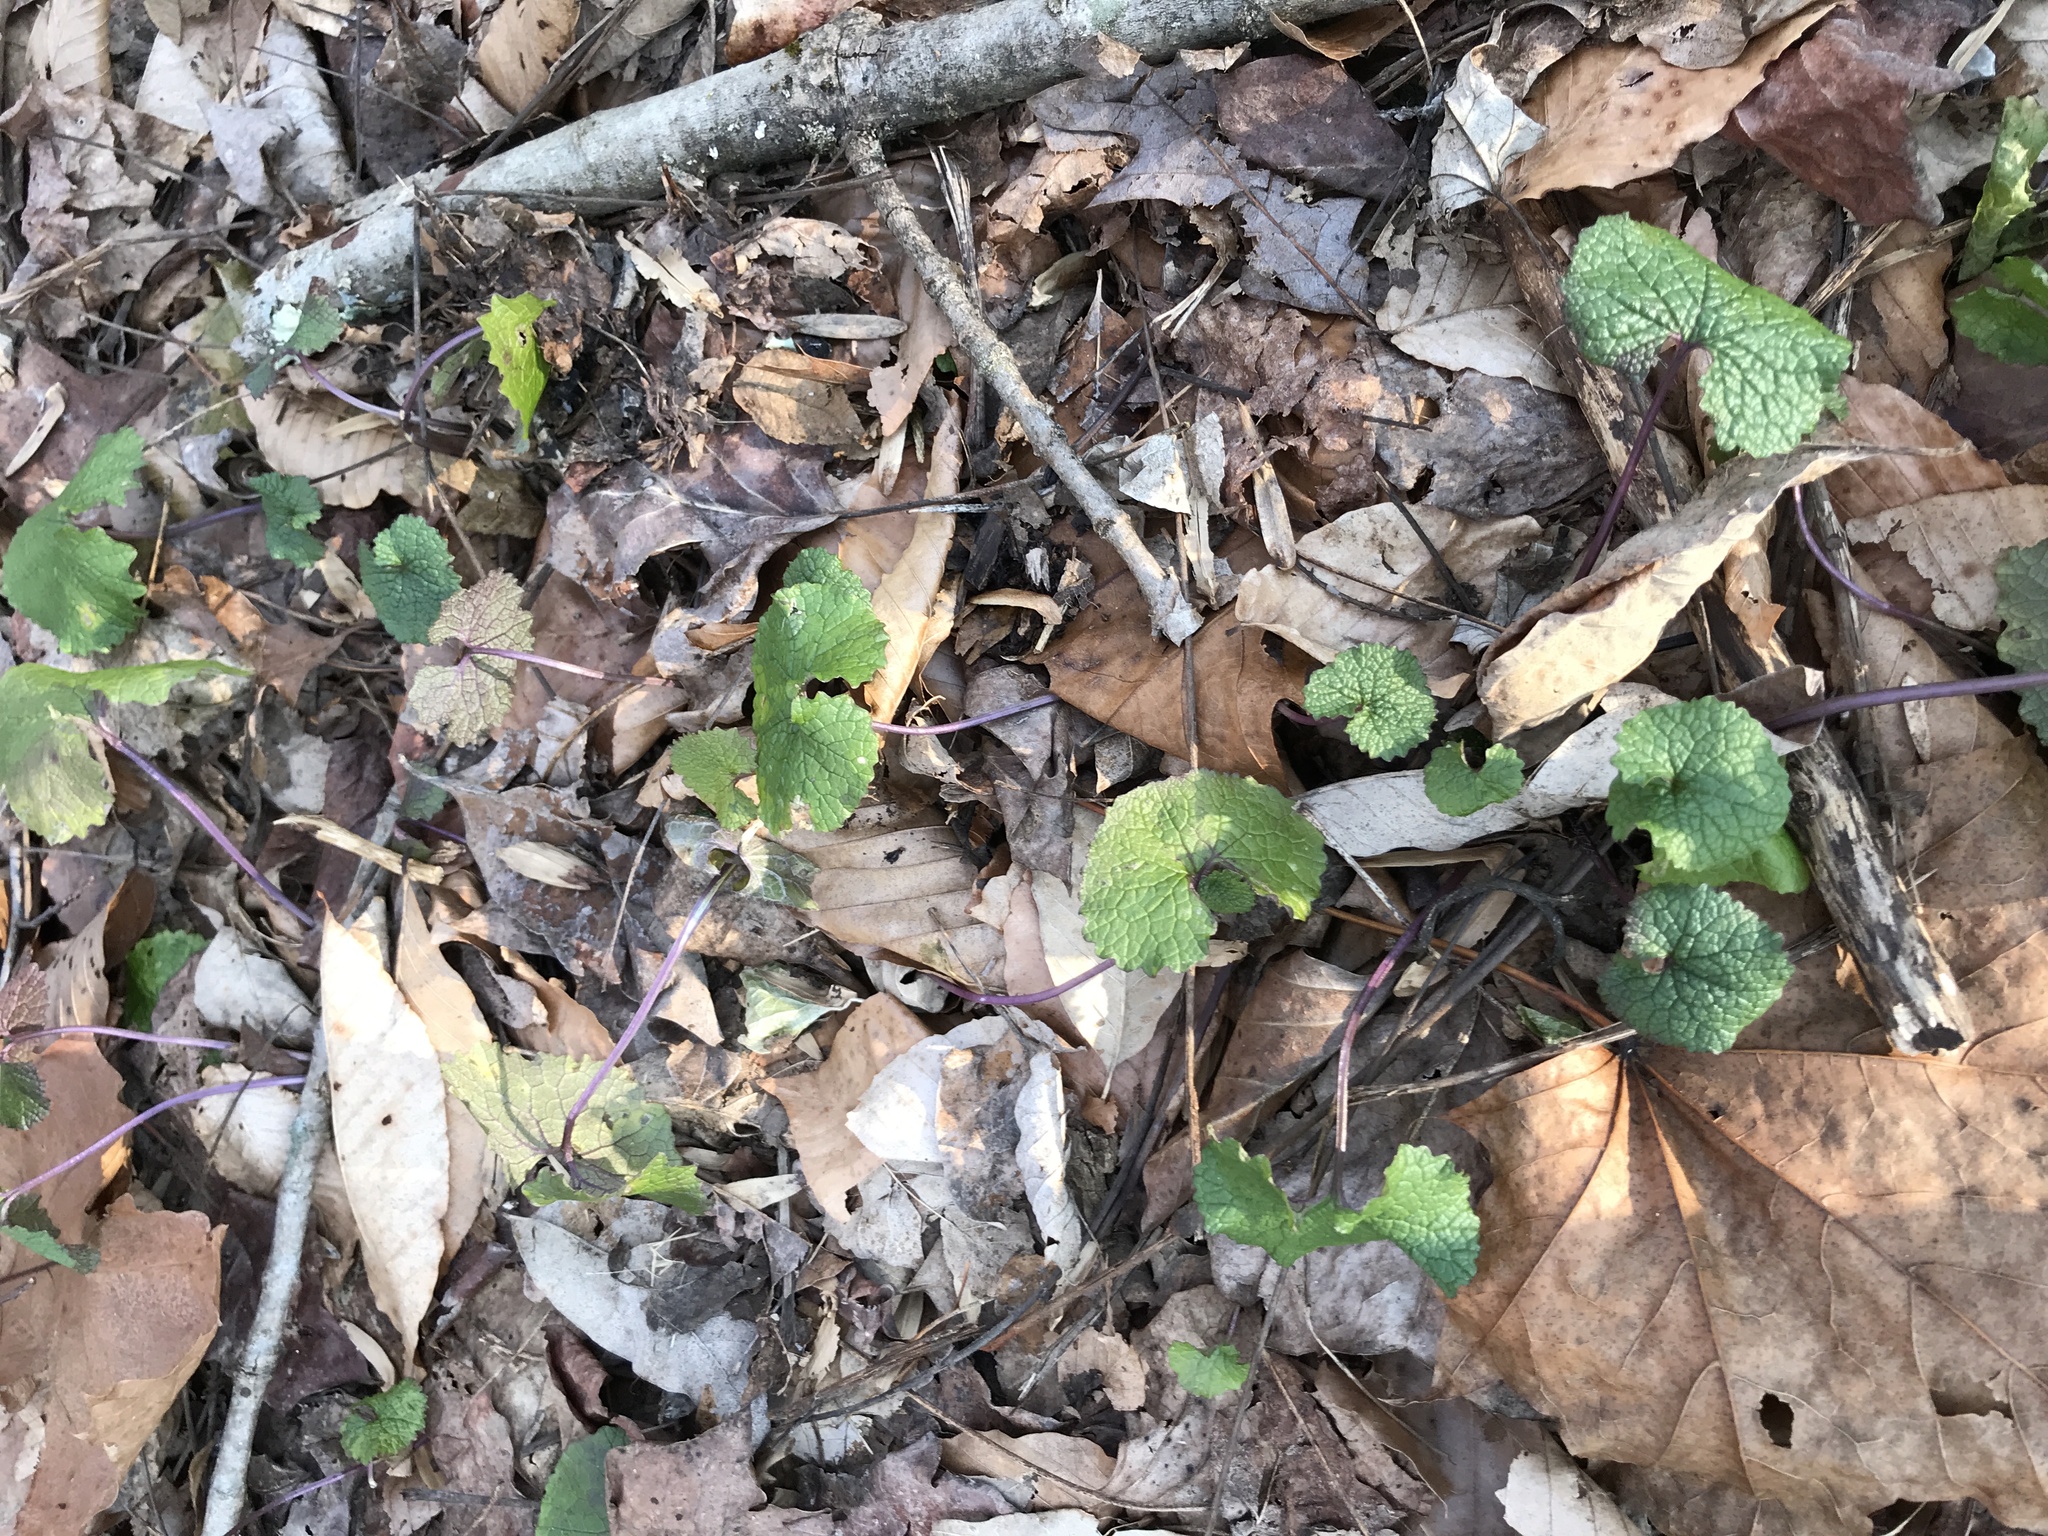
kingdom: Plantae
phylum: Tracheophyta
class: Magnoliopsida
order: Brassicales
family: Brassicaceae
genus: Alliaria
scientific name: Alliaria petiolata
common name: Garlic mustard
